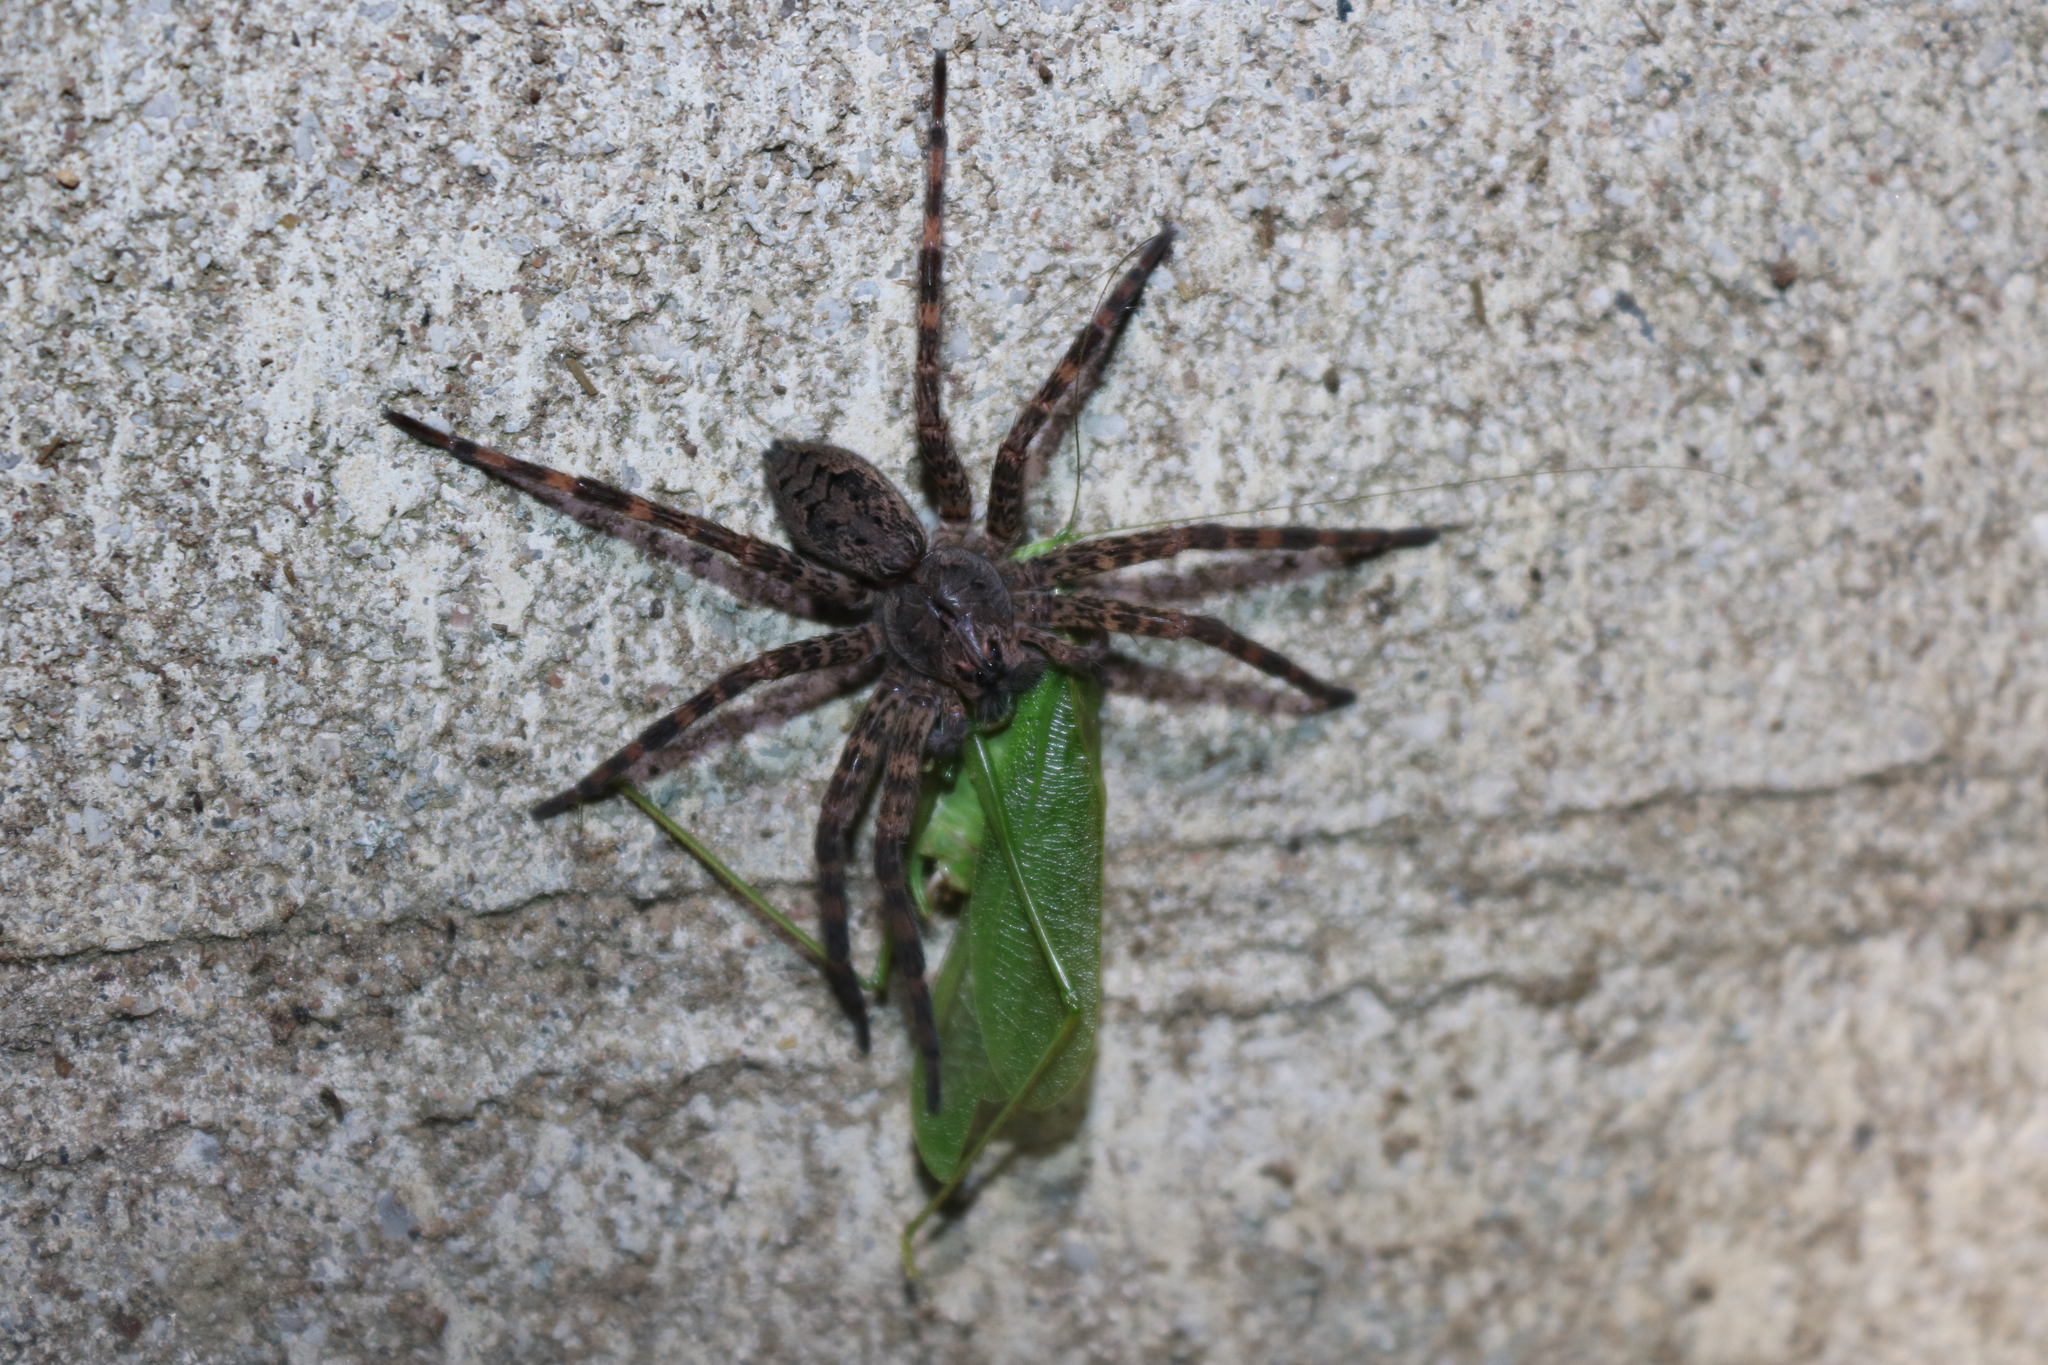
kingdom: Animalia
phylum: Arthropoda
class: Arachnida
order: Araneae
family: Pisauridae
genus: Dolomedes
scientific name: Dolomedes tenebrosus
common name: Dark fishing spider
